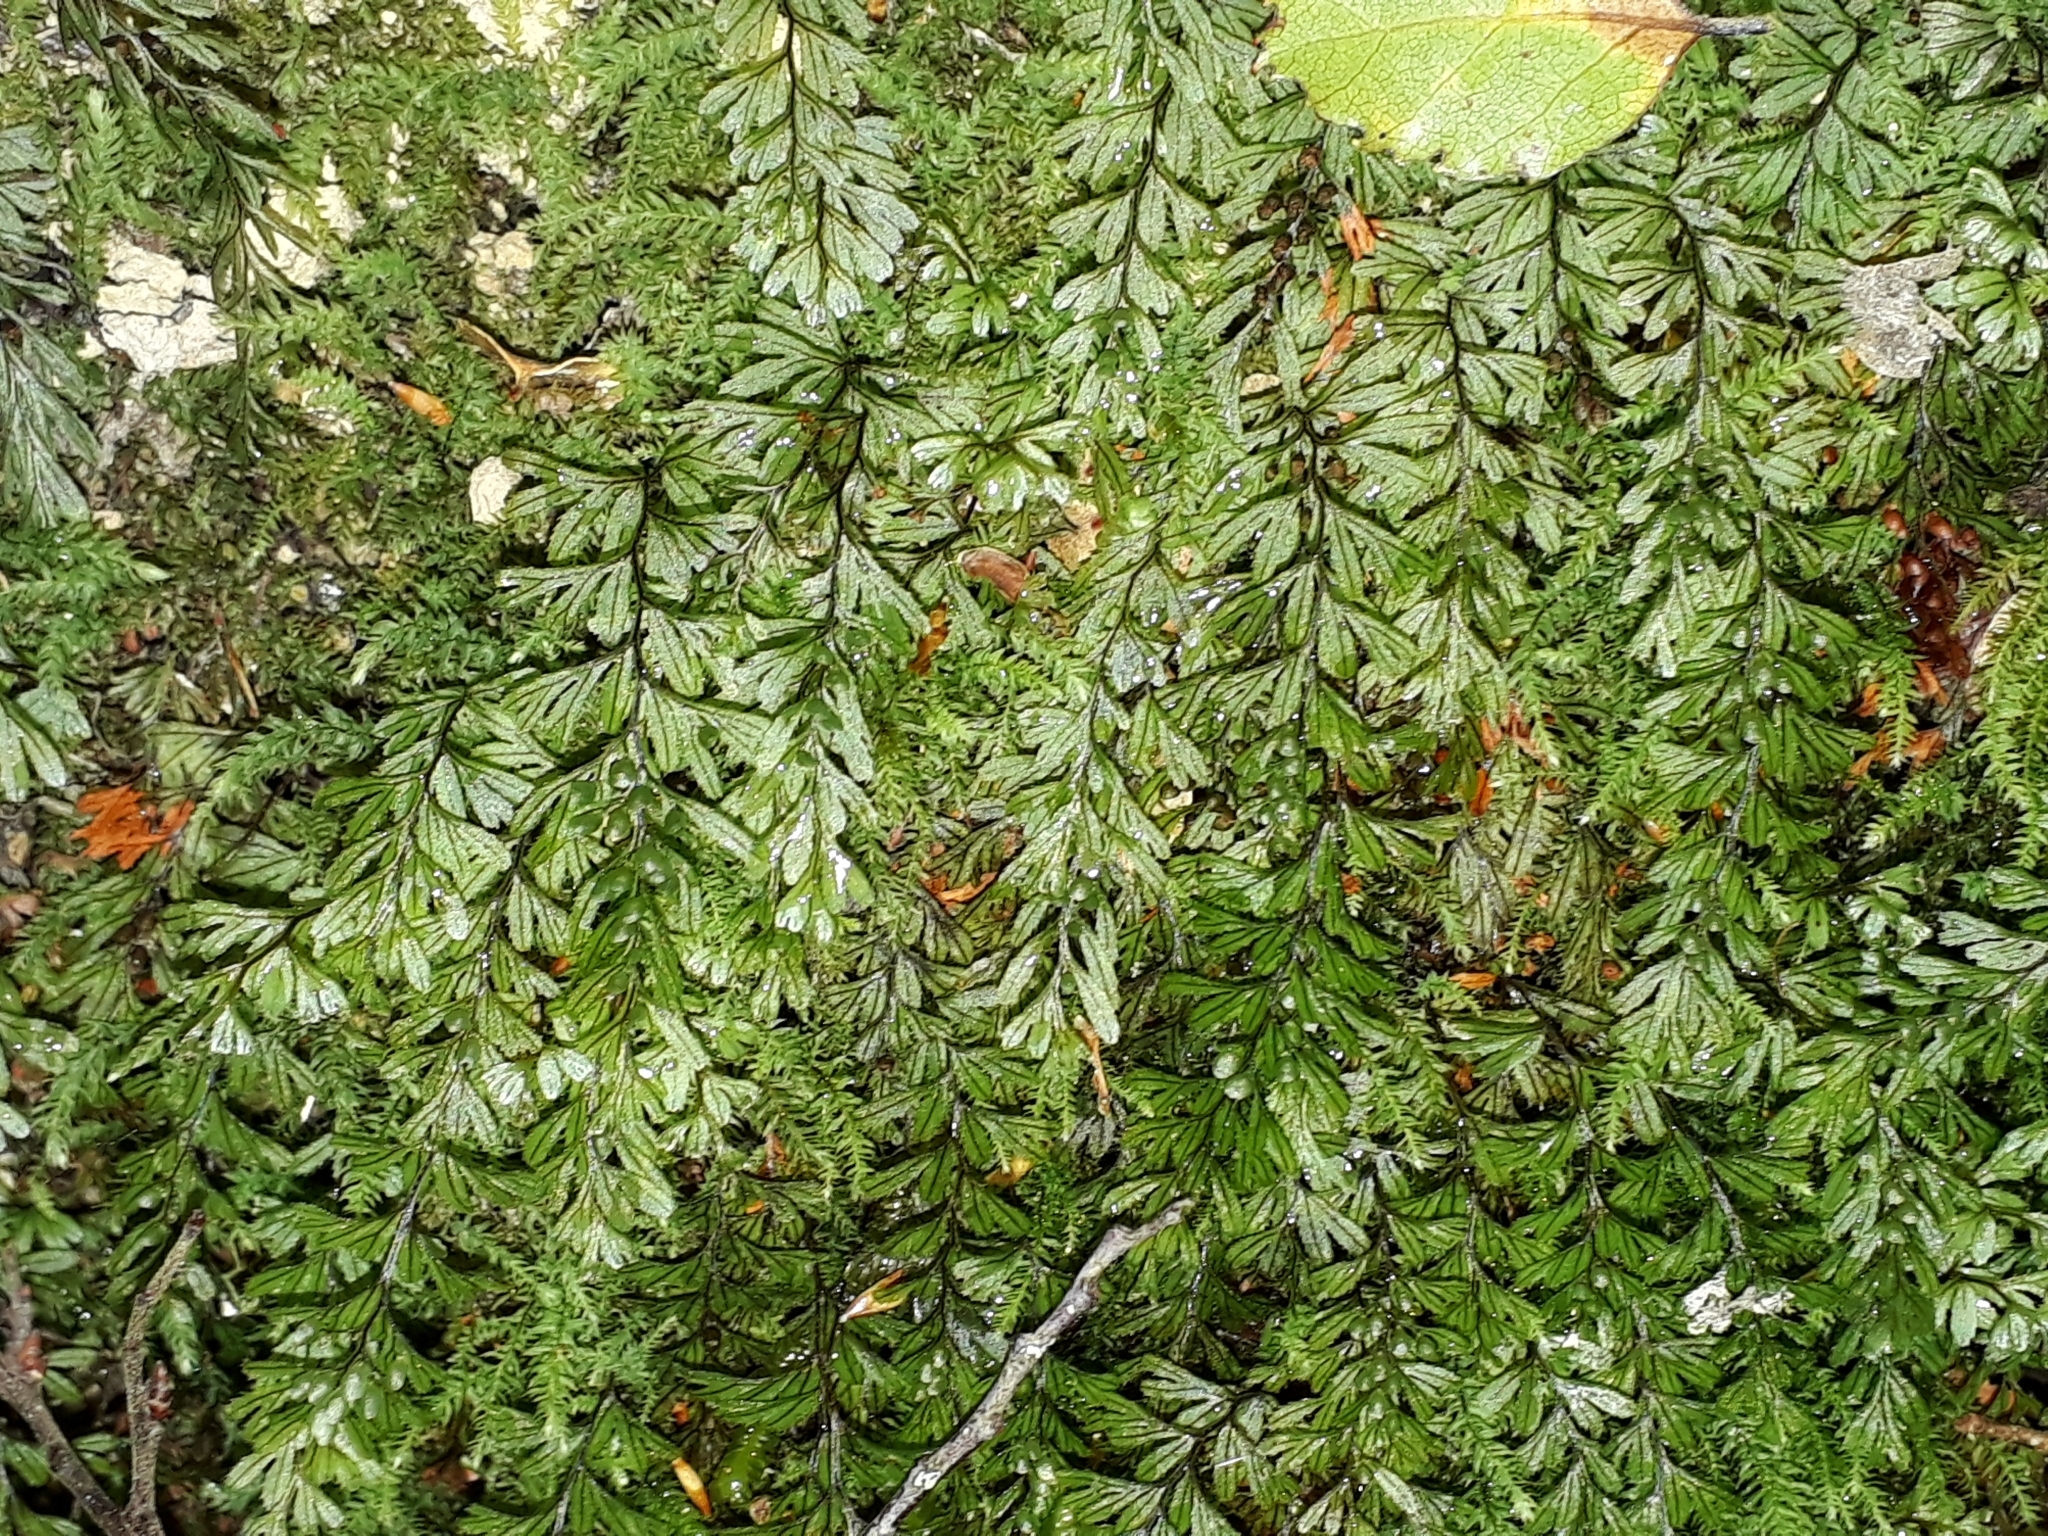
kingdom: Plantae
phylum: Tracheophyta
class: Polypodiopsida
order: Hymenophyllales
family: Hymenophyllaceae
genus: Hymenophyllum
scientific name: Hymenophyllum peltatum
